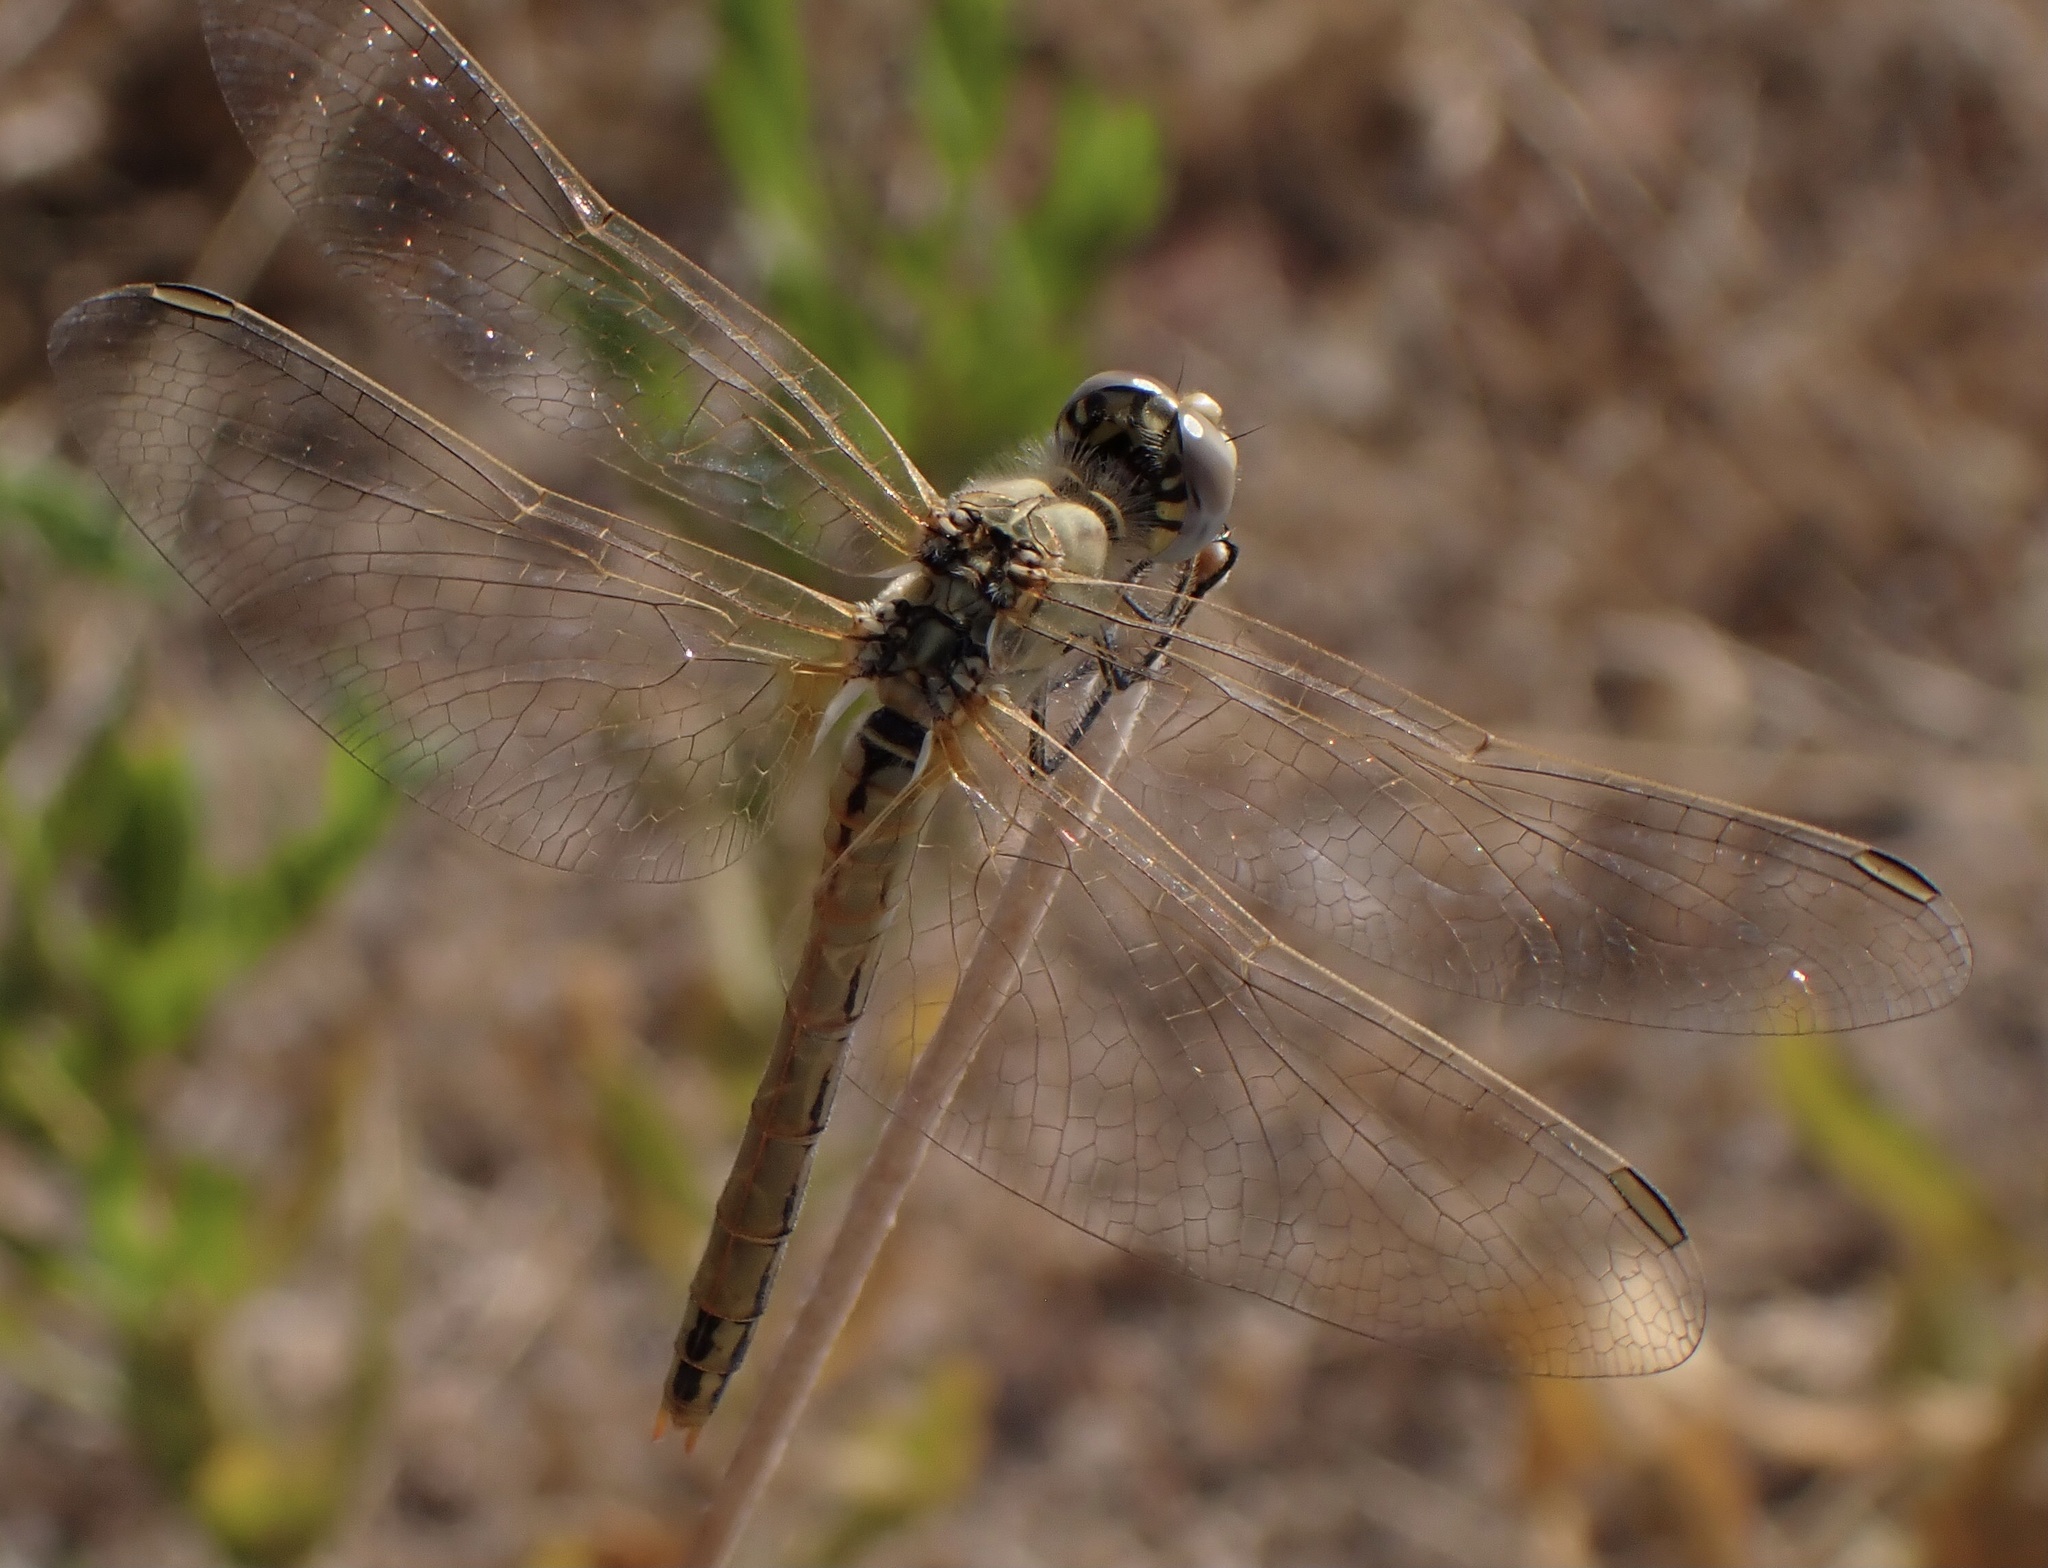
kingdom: Animalia
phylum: Arthropoda
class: Insecta
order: Odonata
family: Libellulidae
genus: Sympetrum
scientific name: Sympetrum fonscolombii
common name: Red-veined darter
